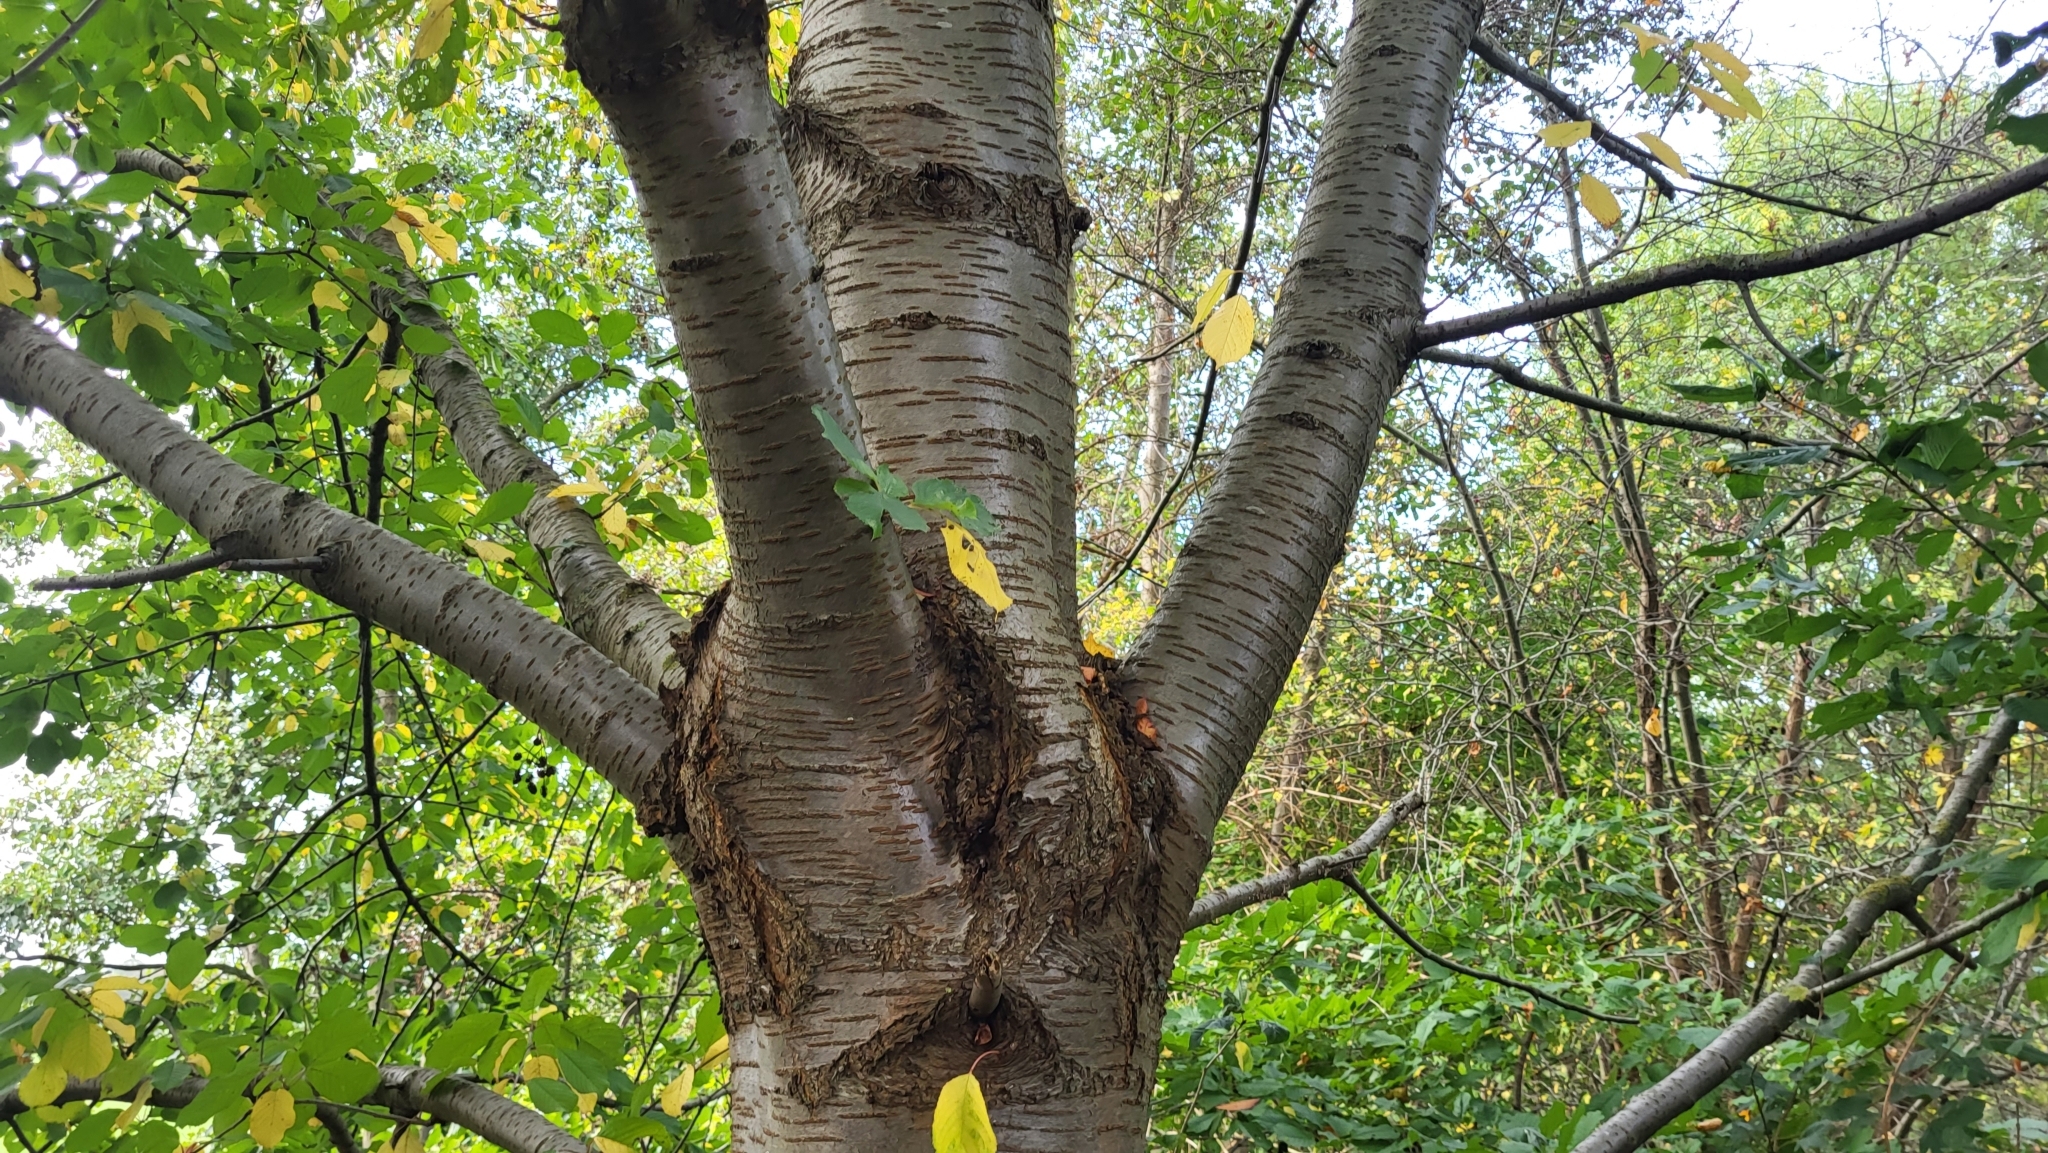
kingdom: Plantae
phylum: Tracheophyta
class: Magnoliopsida
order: Rosales
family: Rosaceae
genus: Prunus
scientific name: Prunus avium
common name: Sweet cherry
